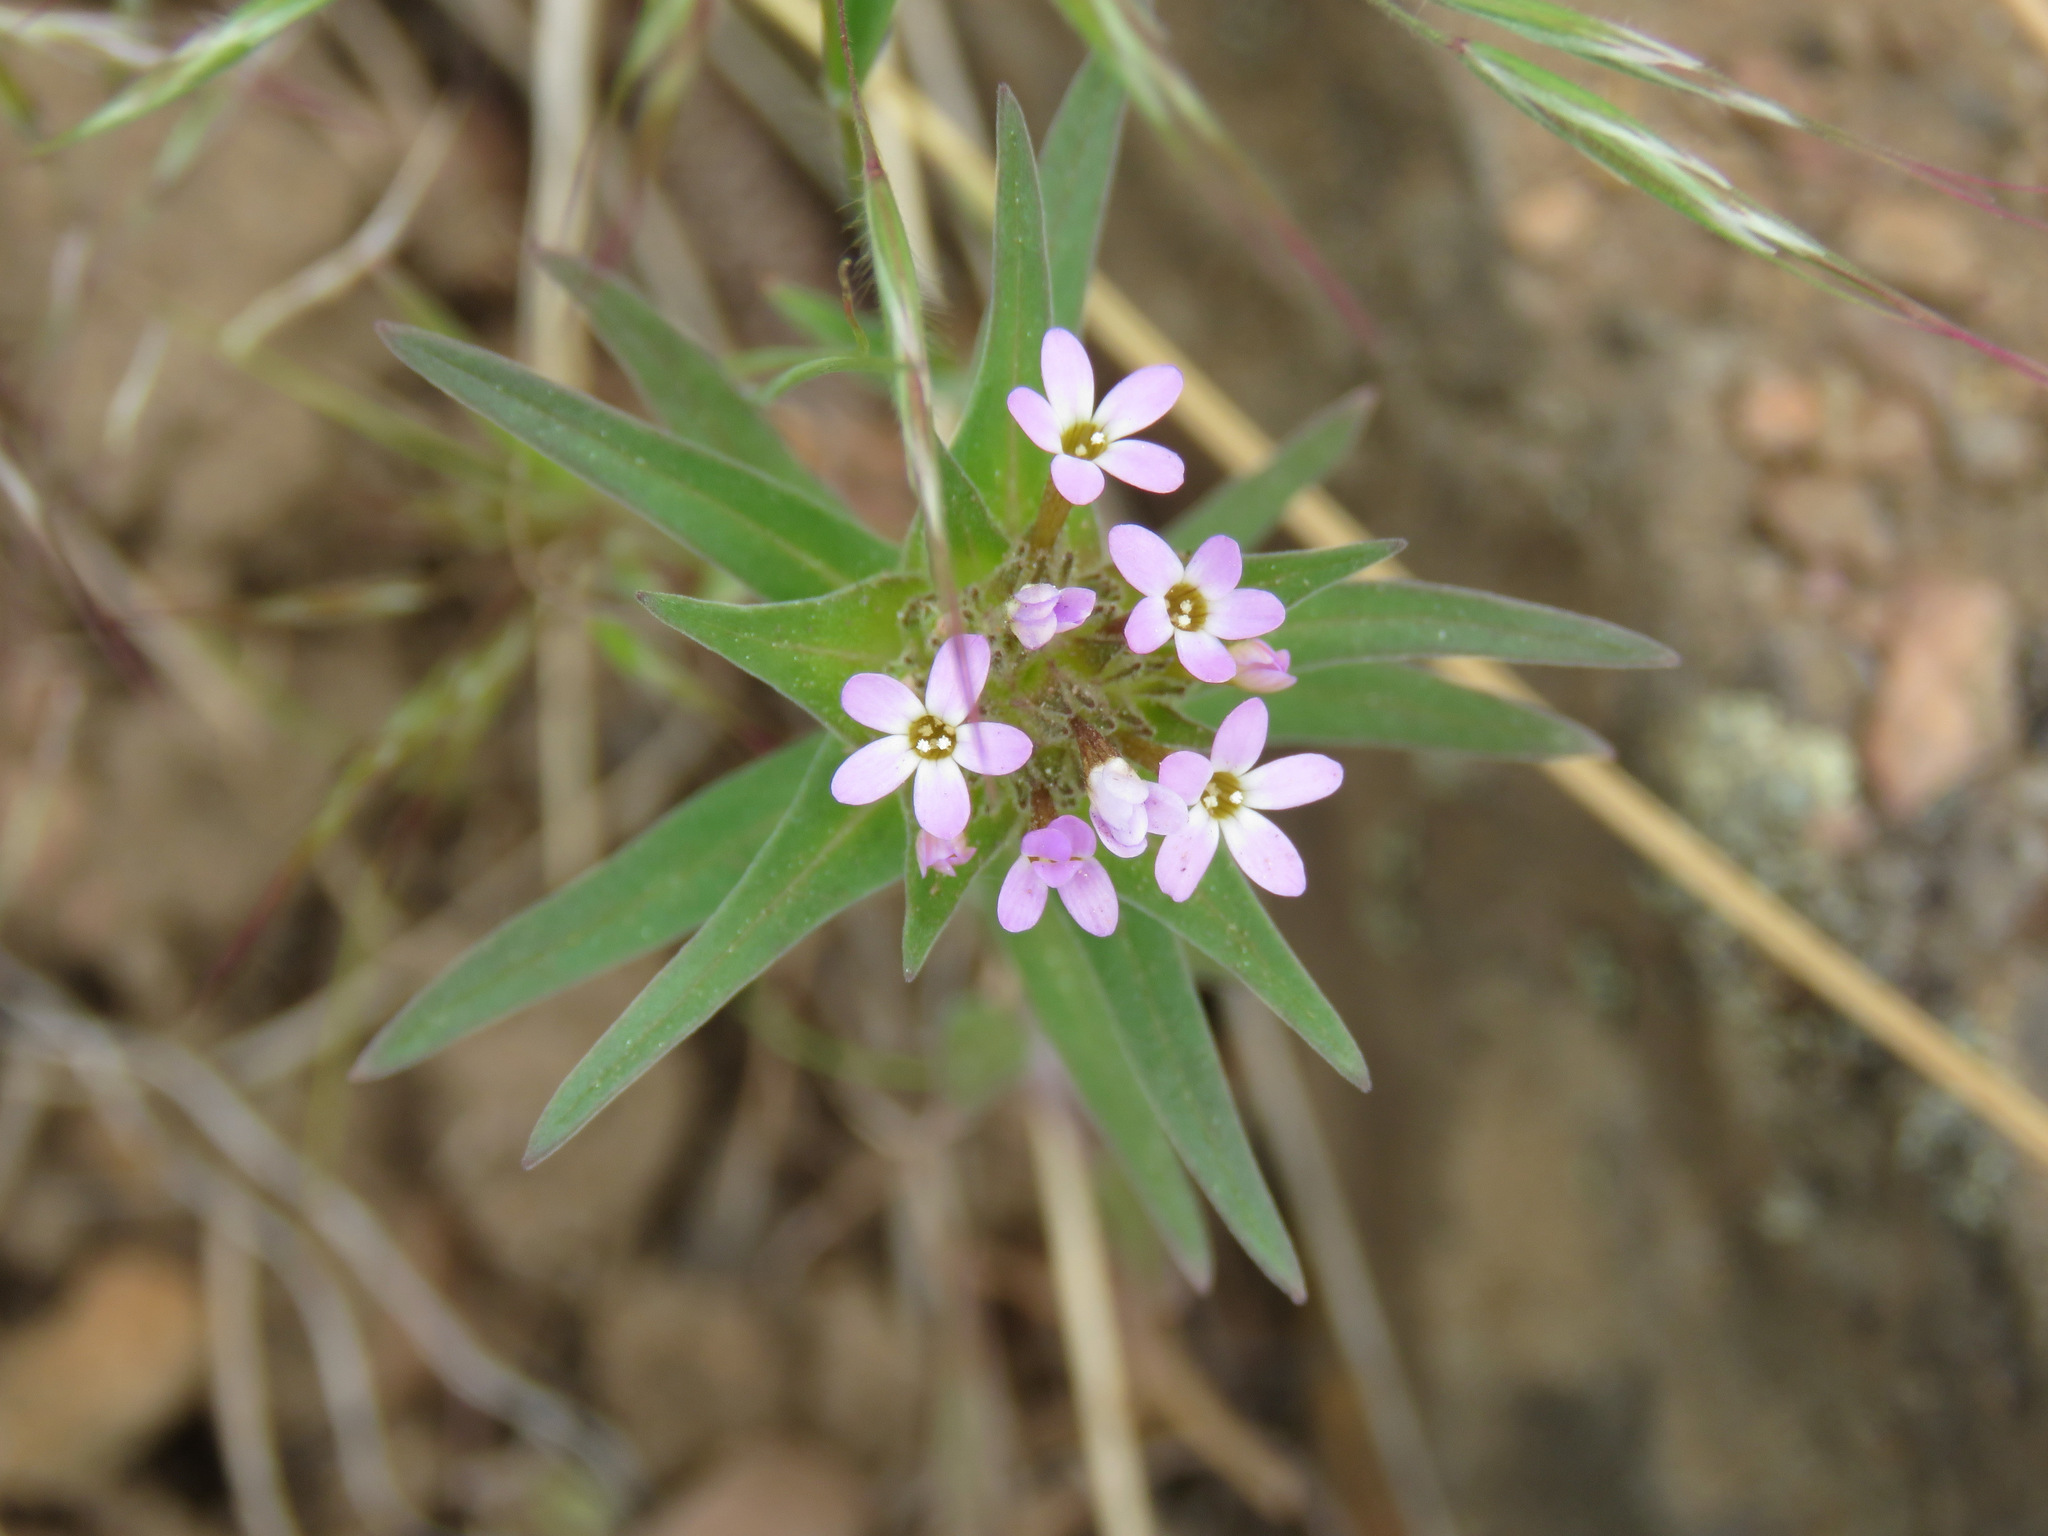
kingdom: Plantae
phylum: Tracheophyta
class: Magnoliopsida
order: Ericales
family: Polemoniaceae
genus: Collomia
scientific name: Collomia linearis
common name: Tiny trumpet
